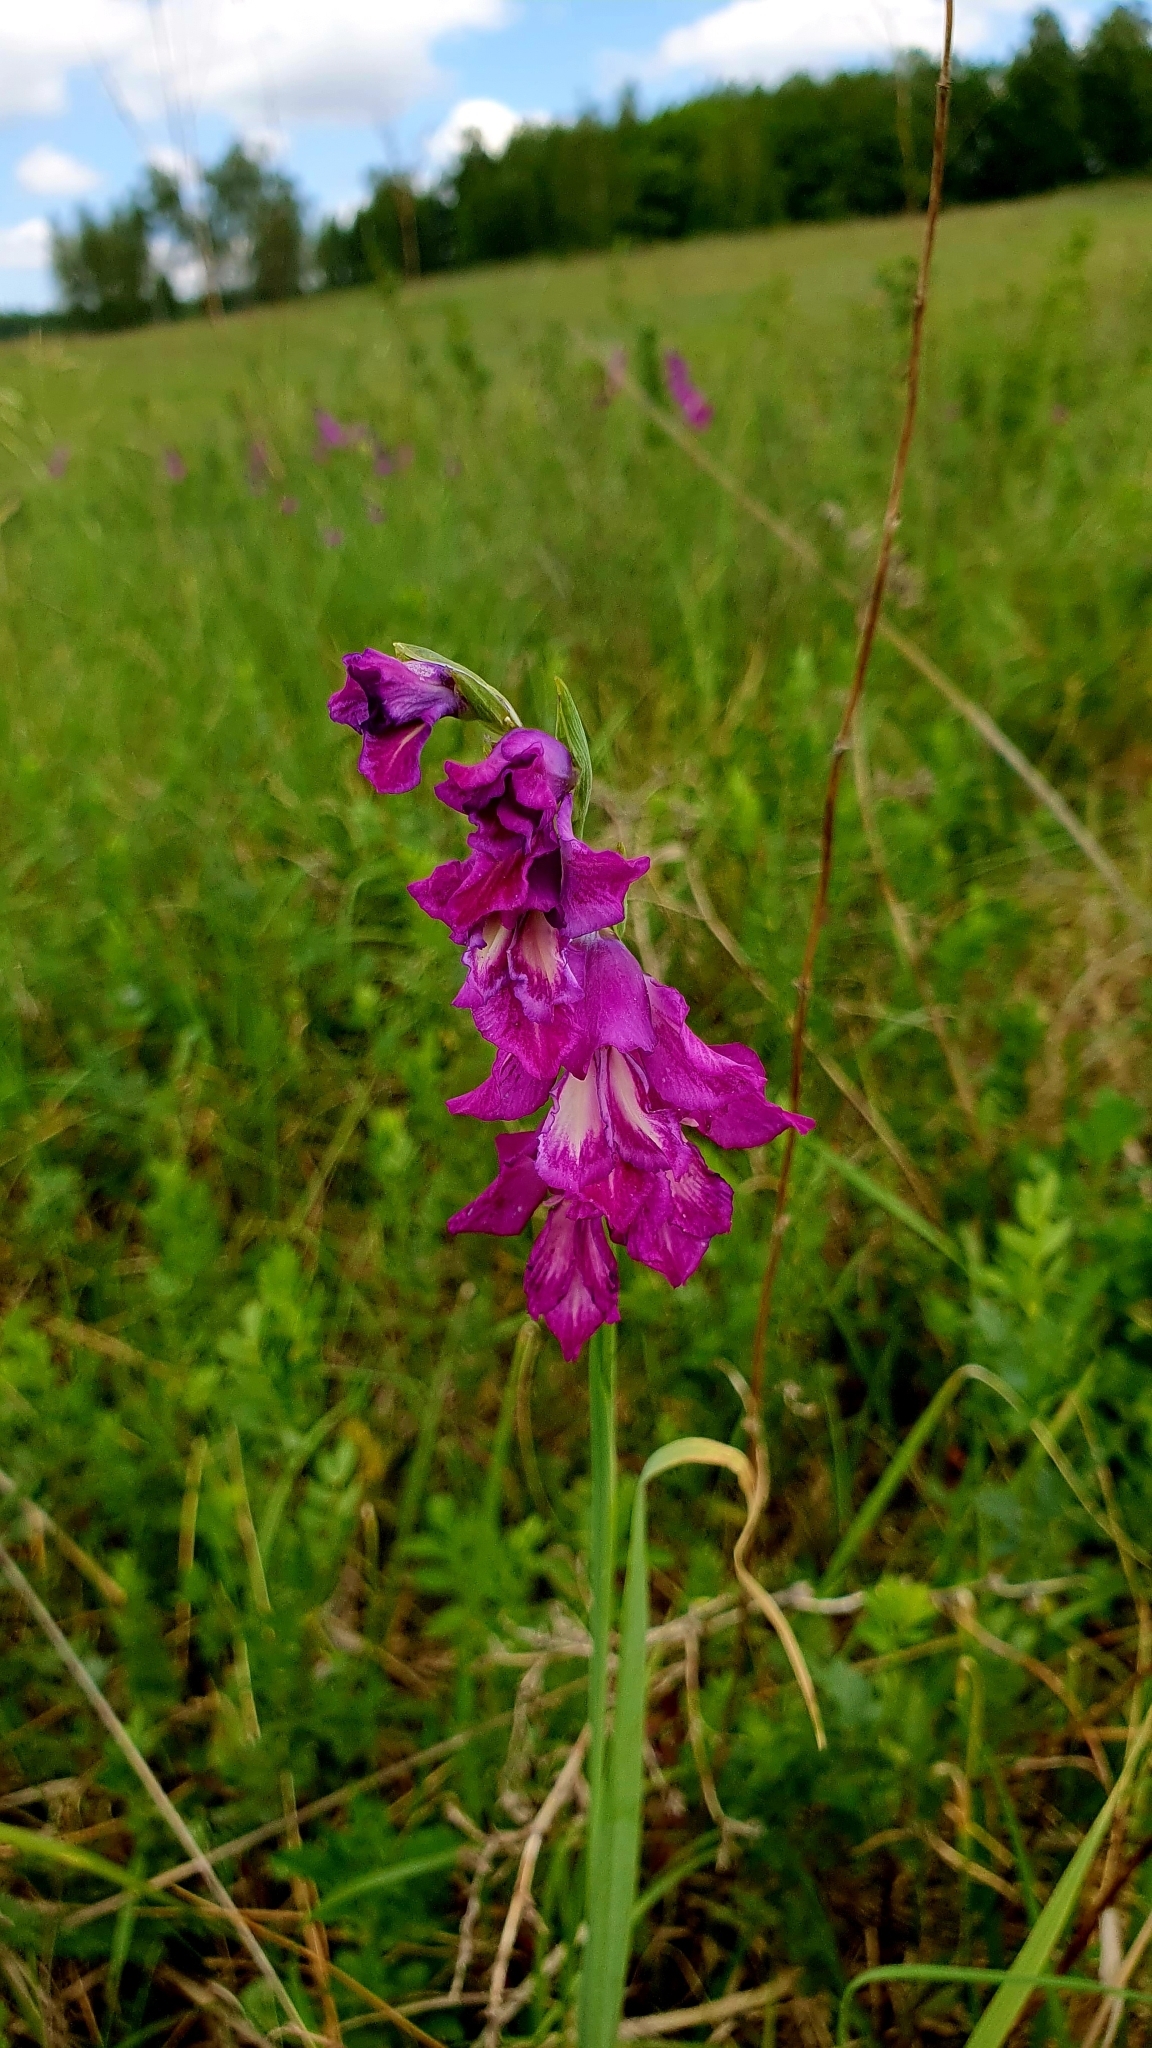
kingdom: Plantae
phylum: Tracheophyta
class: Liliopsida
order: Asparagales
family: Iridaceae
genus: Gladiolus
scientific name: Gladiolus tenuis
